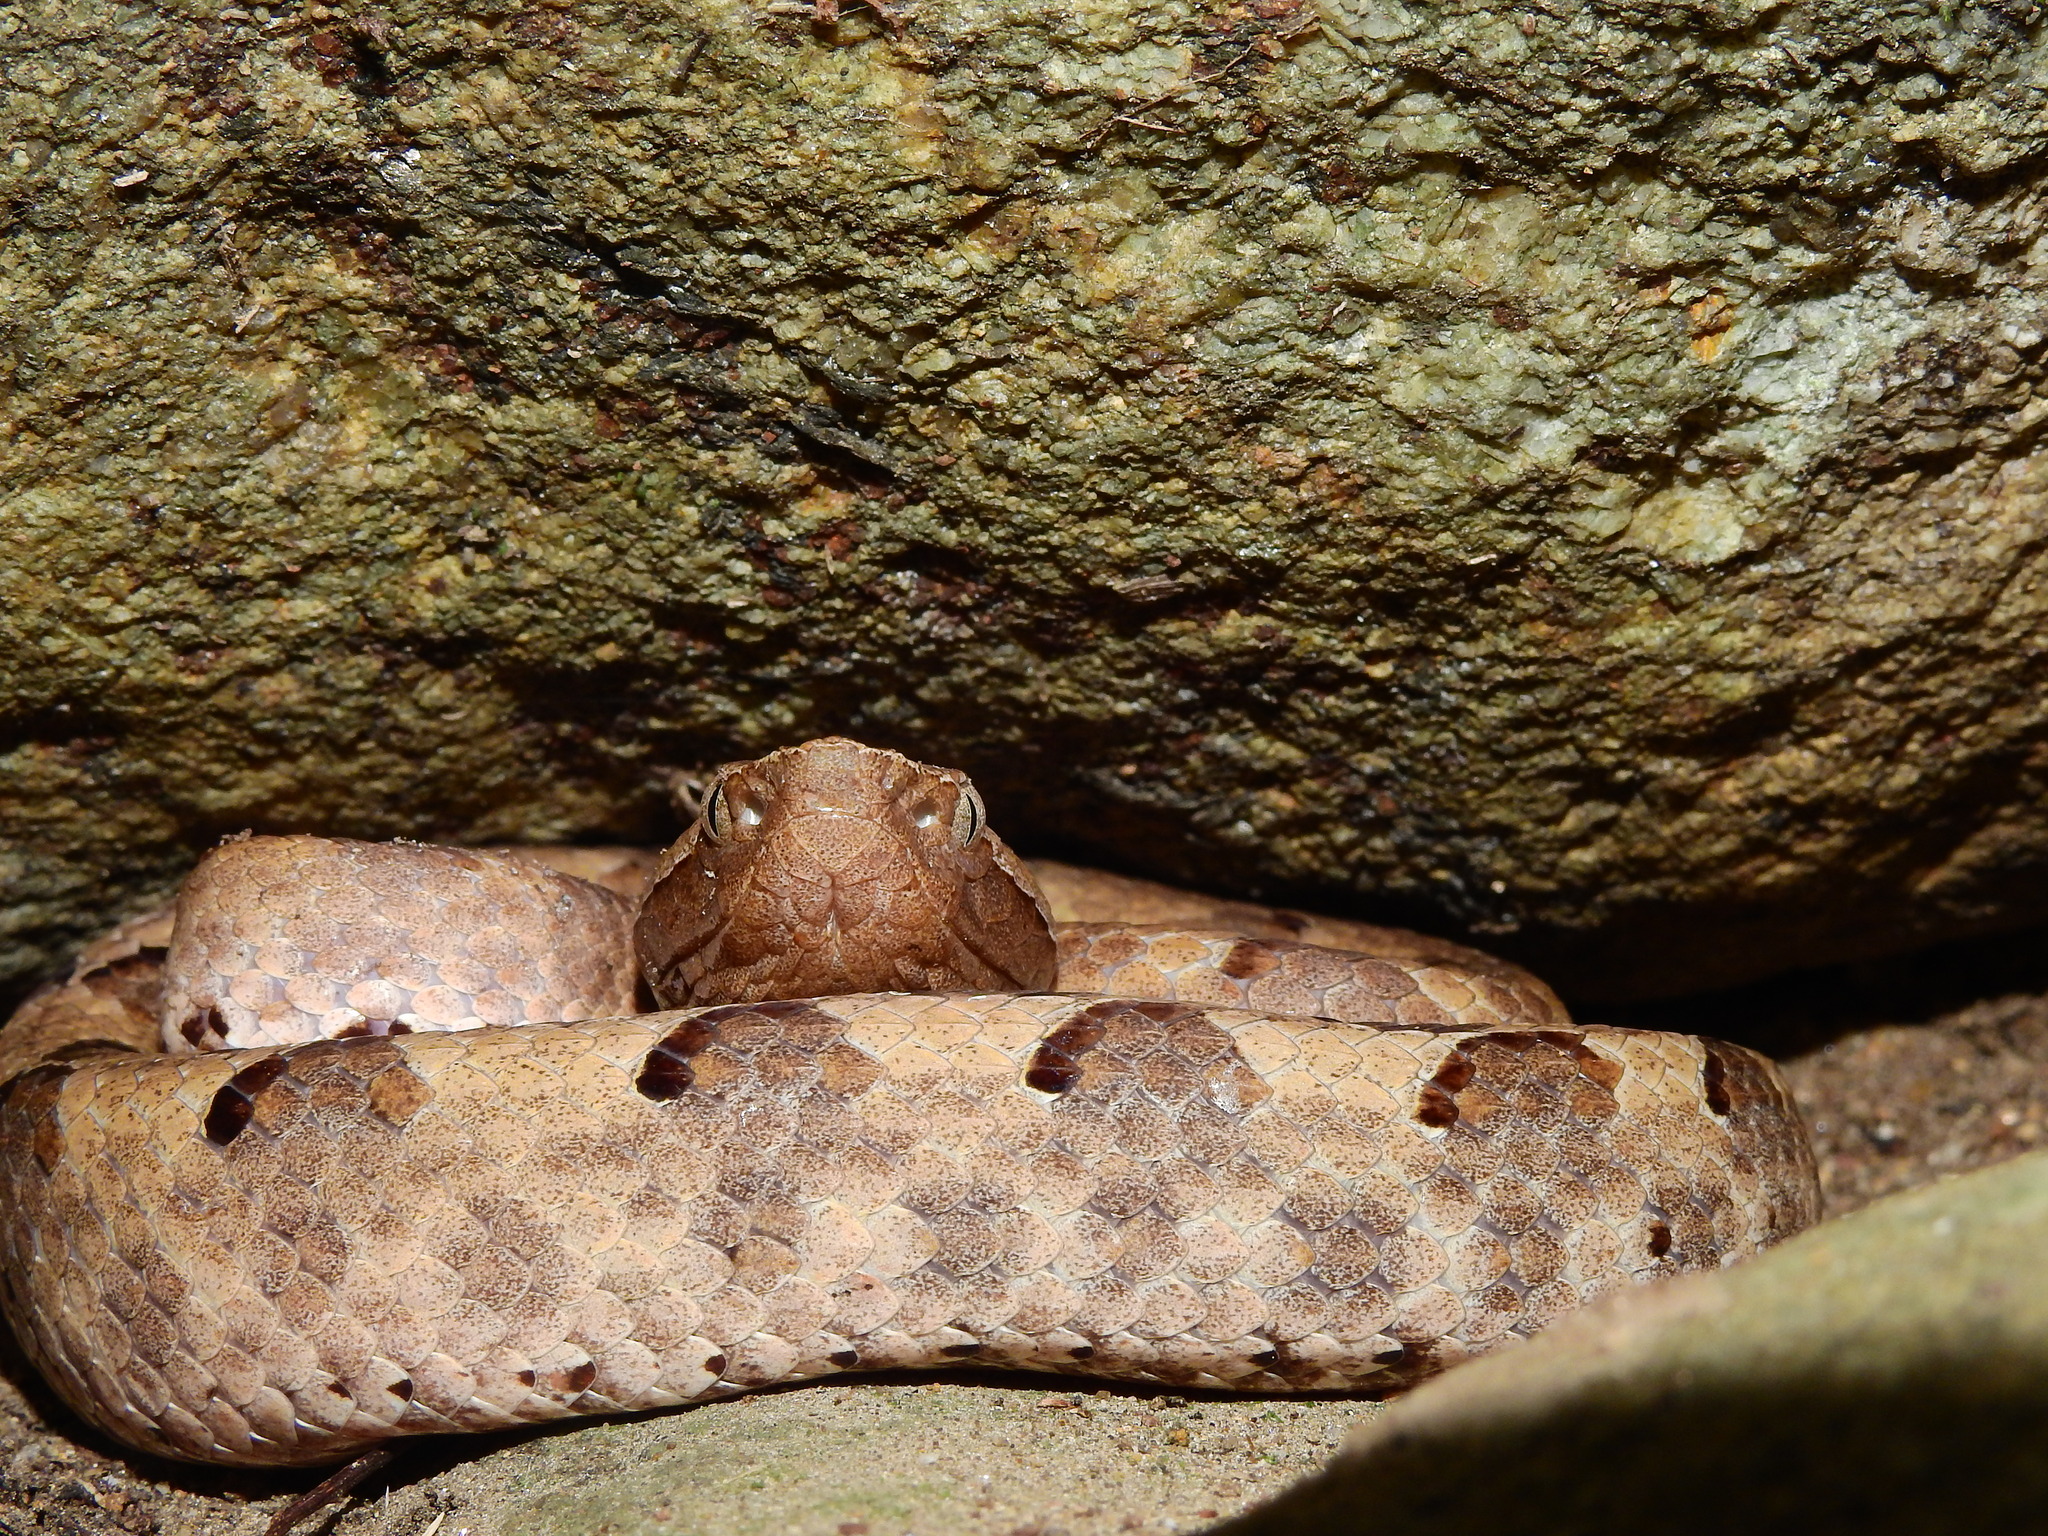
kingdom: Animalia
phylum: Chordata
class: Squamata
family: Viperidae
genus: Hypnale
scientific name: Hypnale hypnale
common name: Hump-nosed moccasin
